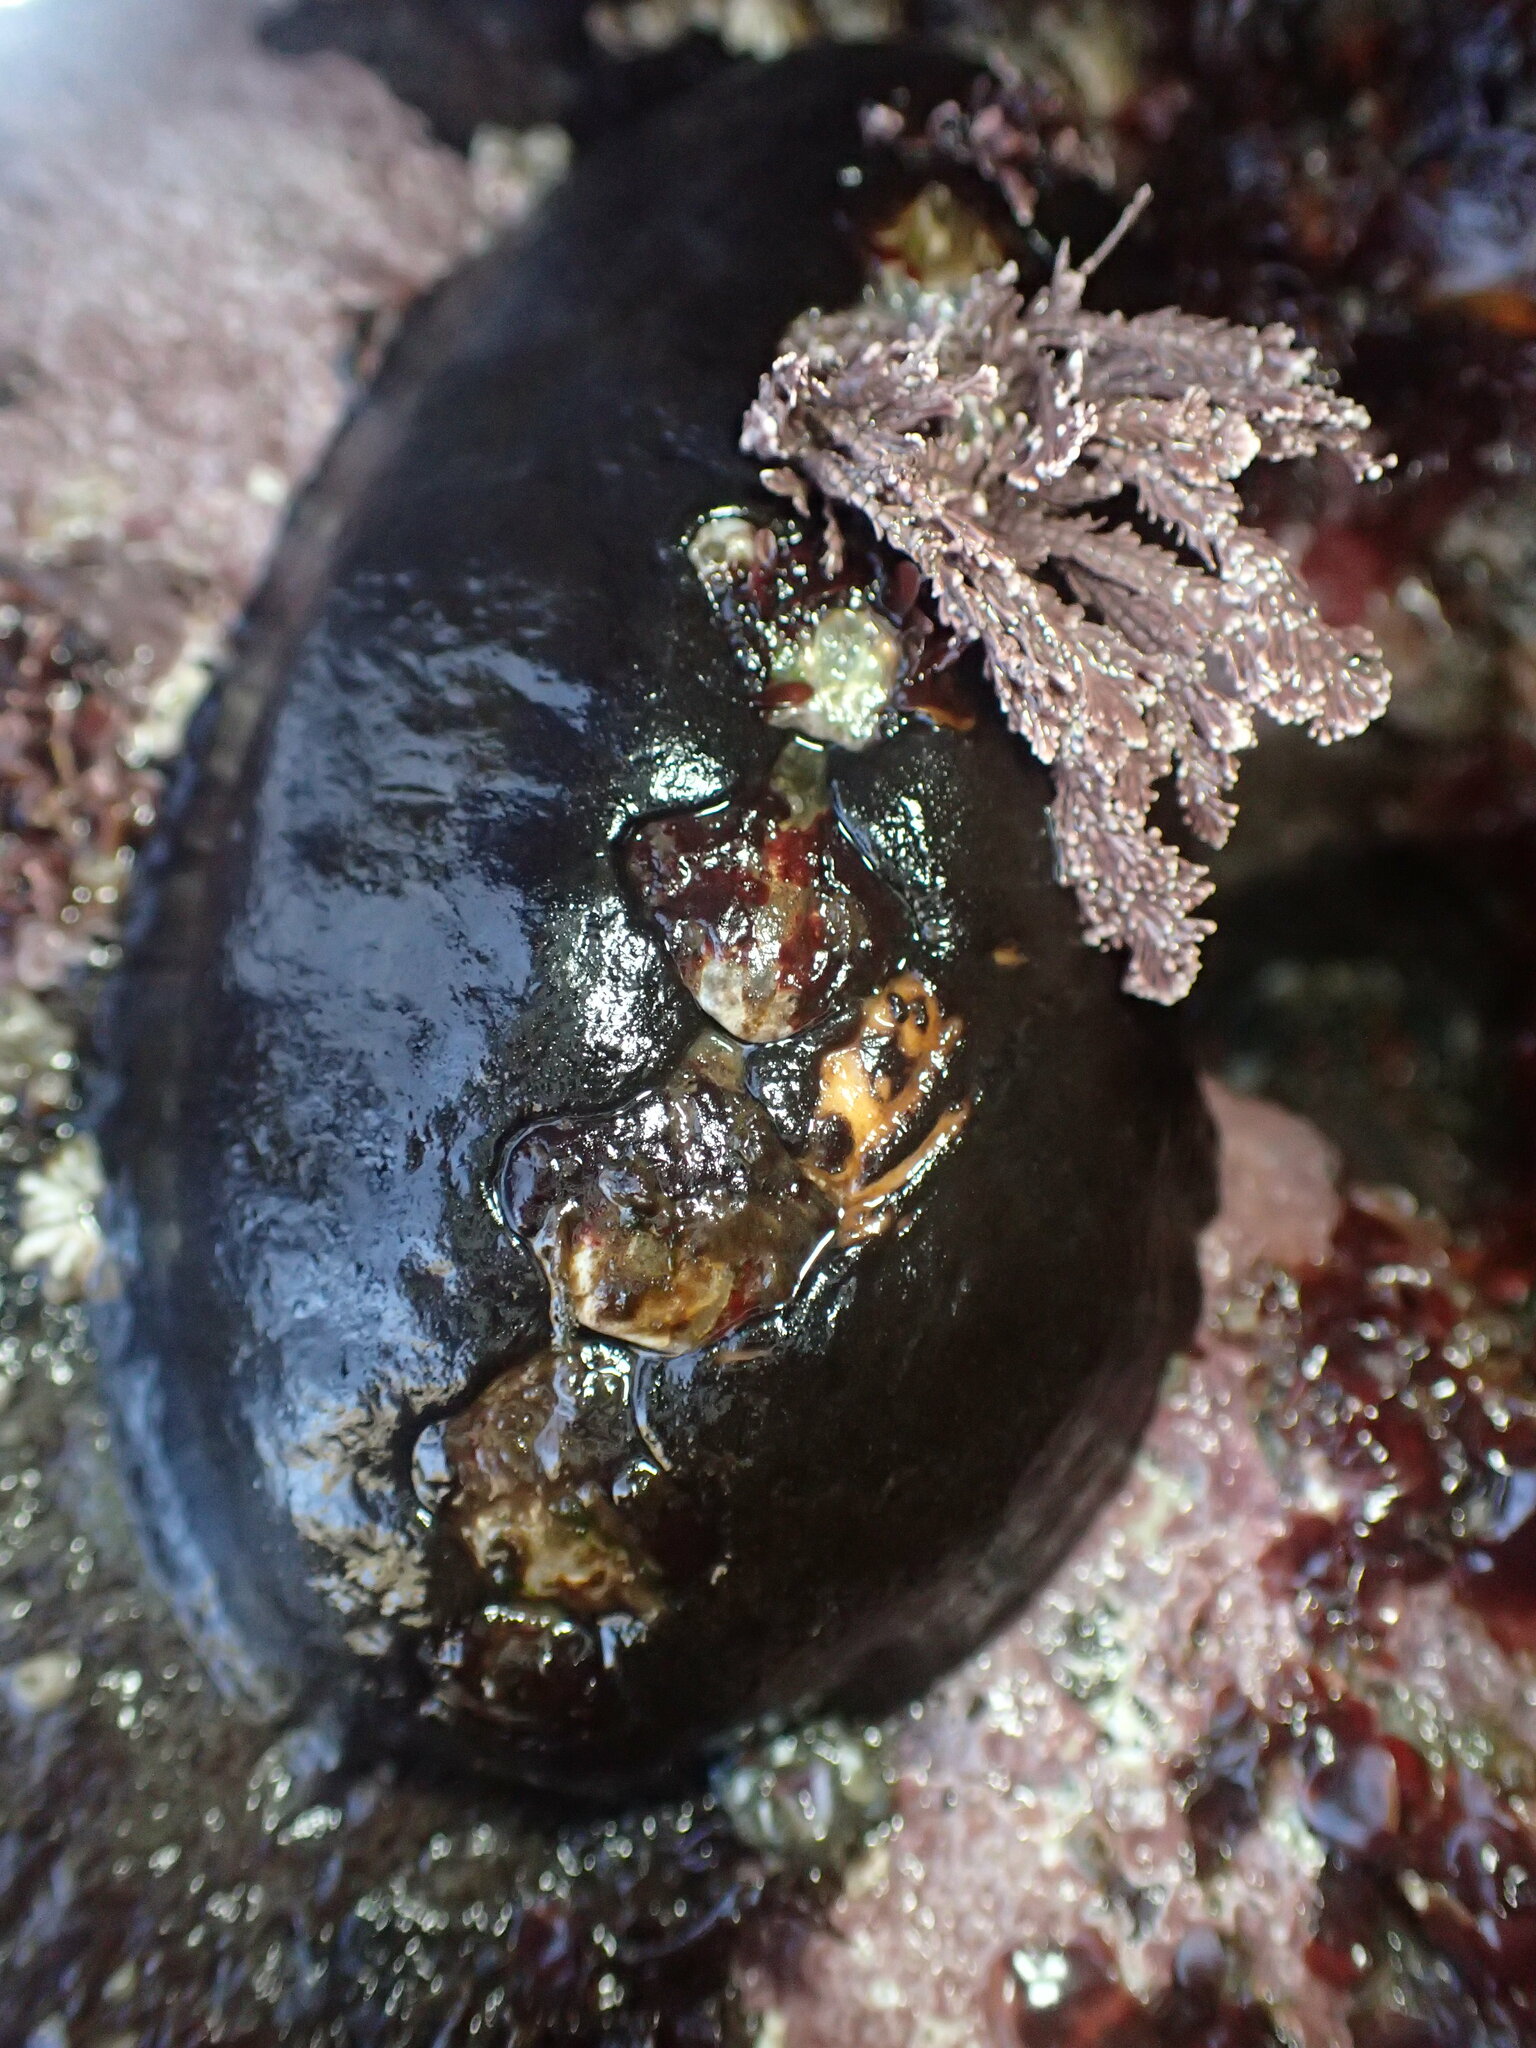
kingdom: Animalia
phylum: Mollusca
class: Polyplacophora
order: Chitonida
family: Mopaliidae
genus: Katharina
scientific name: Katharina tunicata
